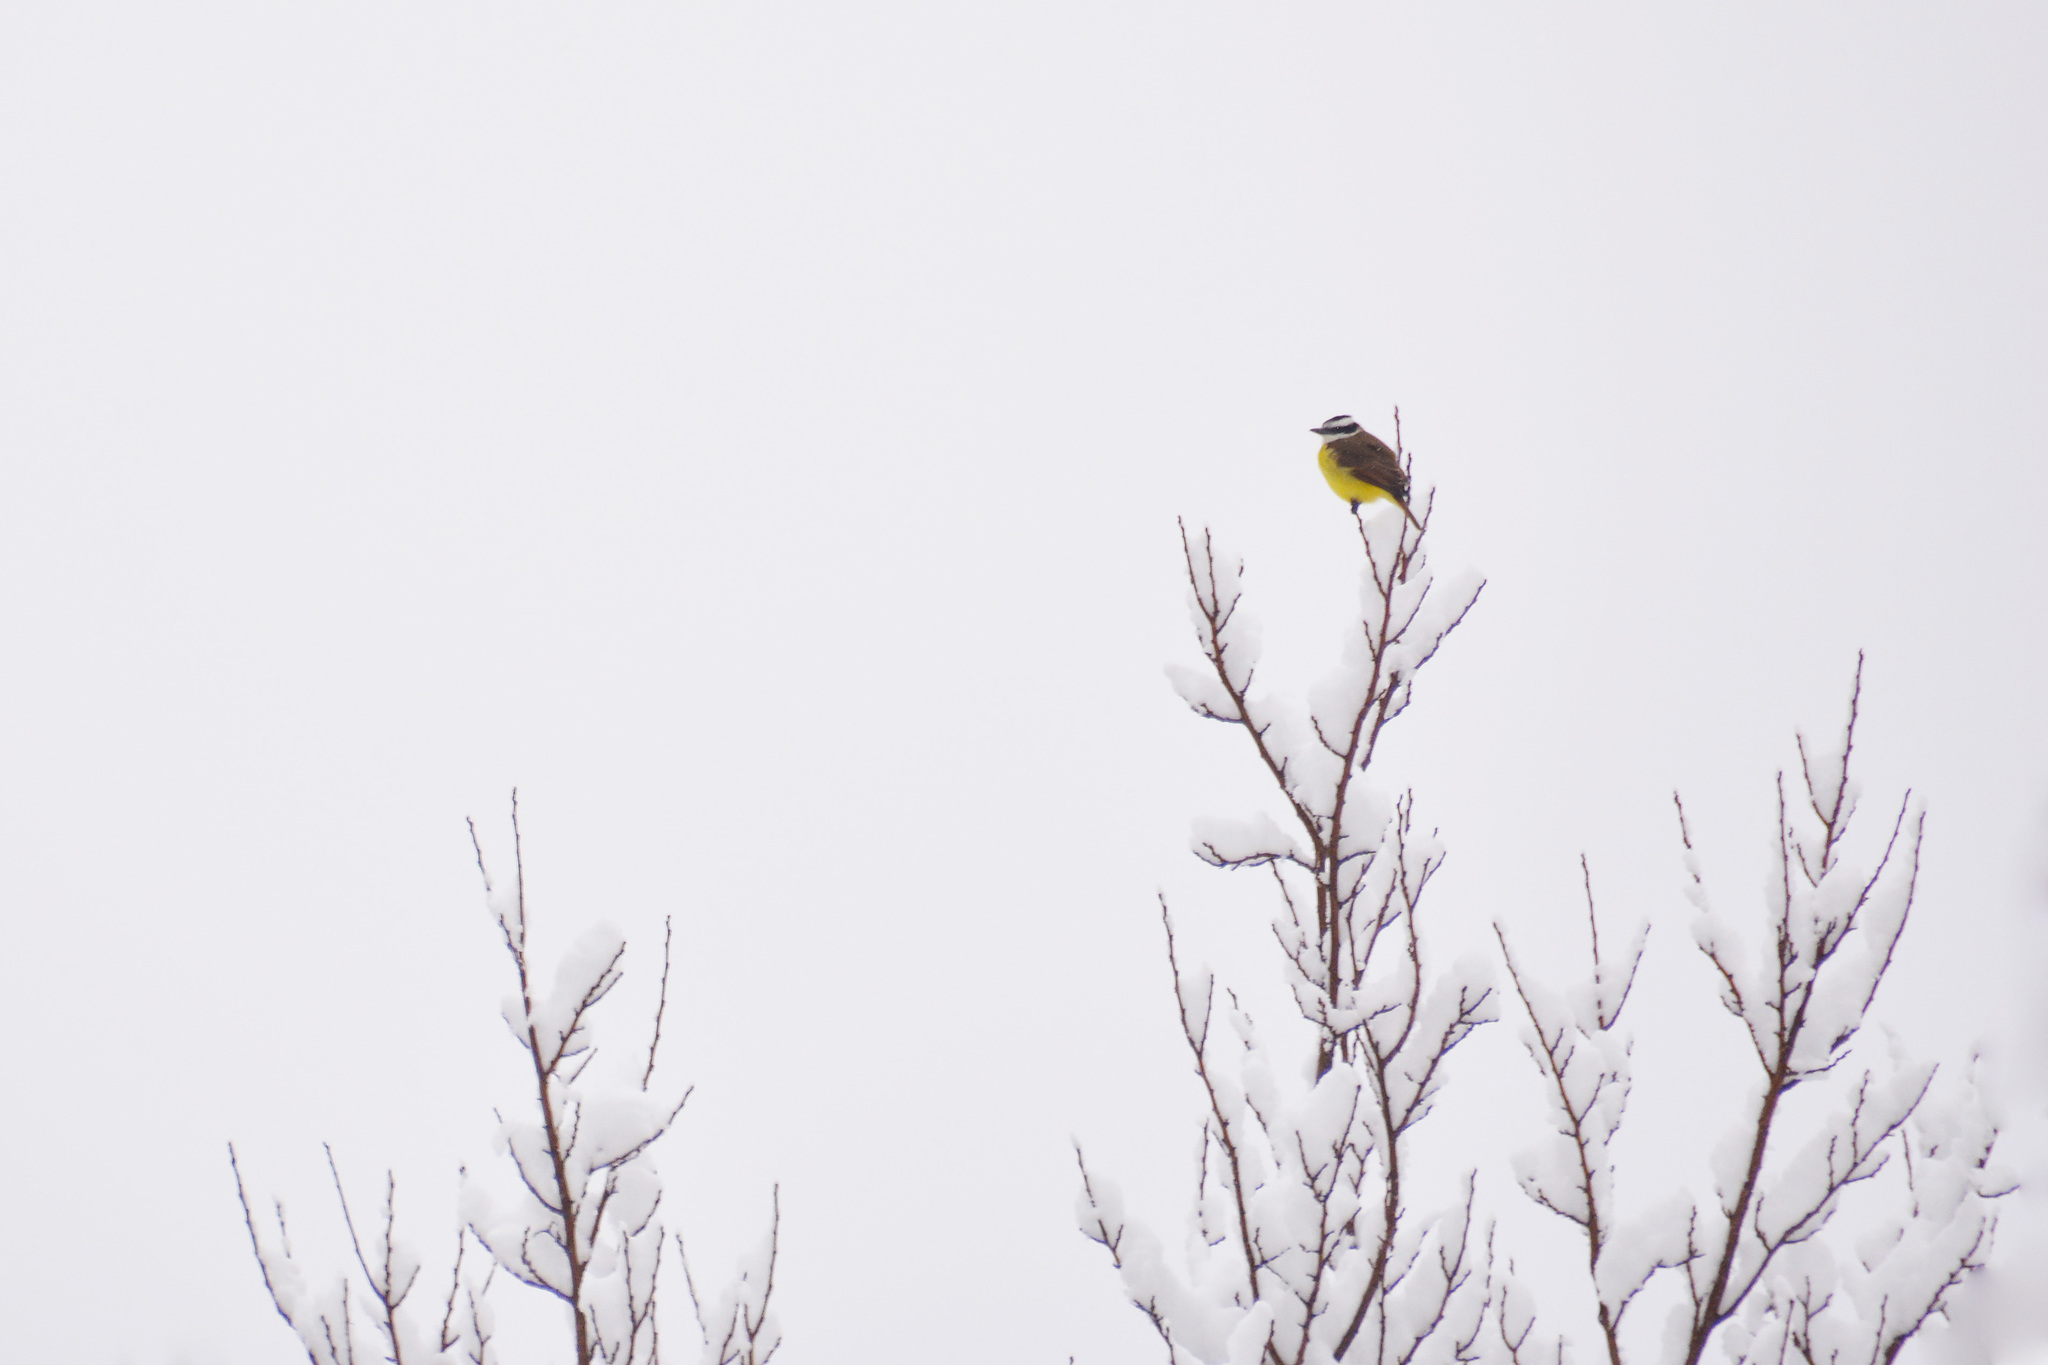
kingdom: Animalia
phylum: Chordata
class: Aves
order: Passeriformes
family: Tyrannidae
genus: Pitangus
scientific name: Pitangus sulphuratus
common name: Great kiskadee
